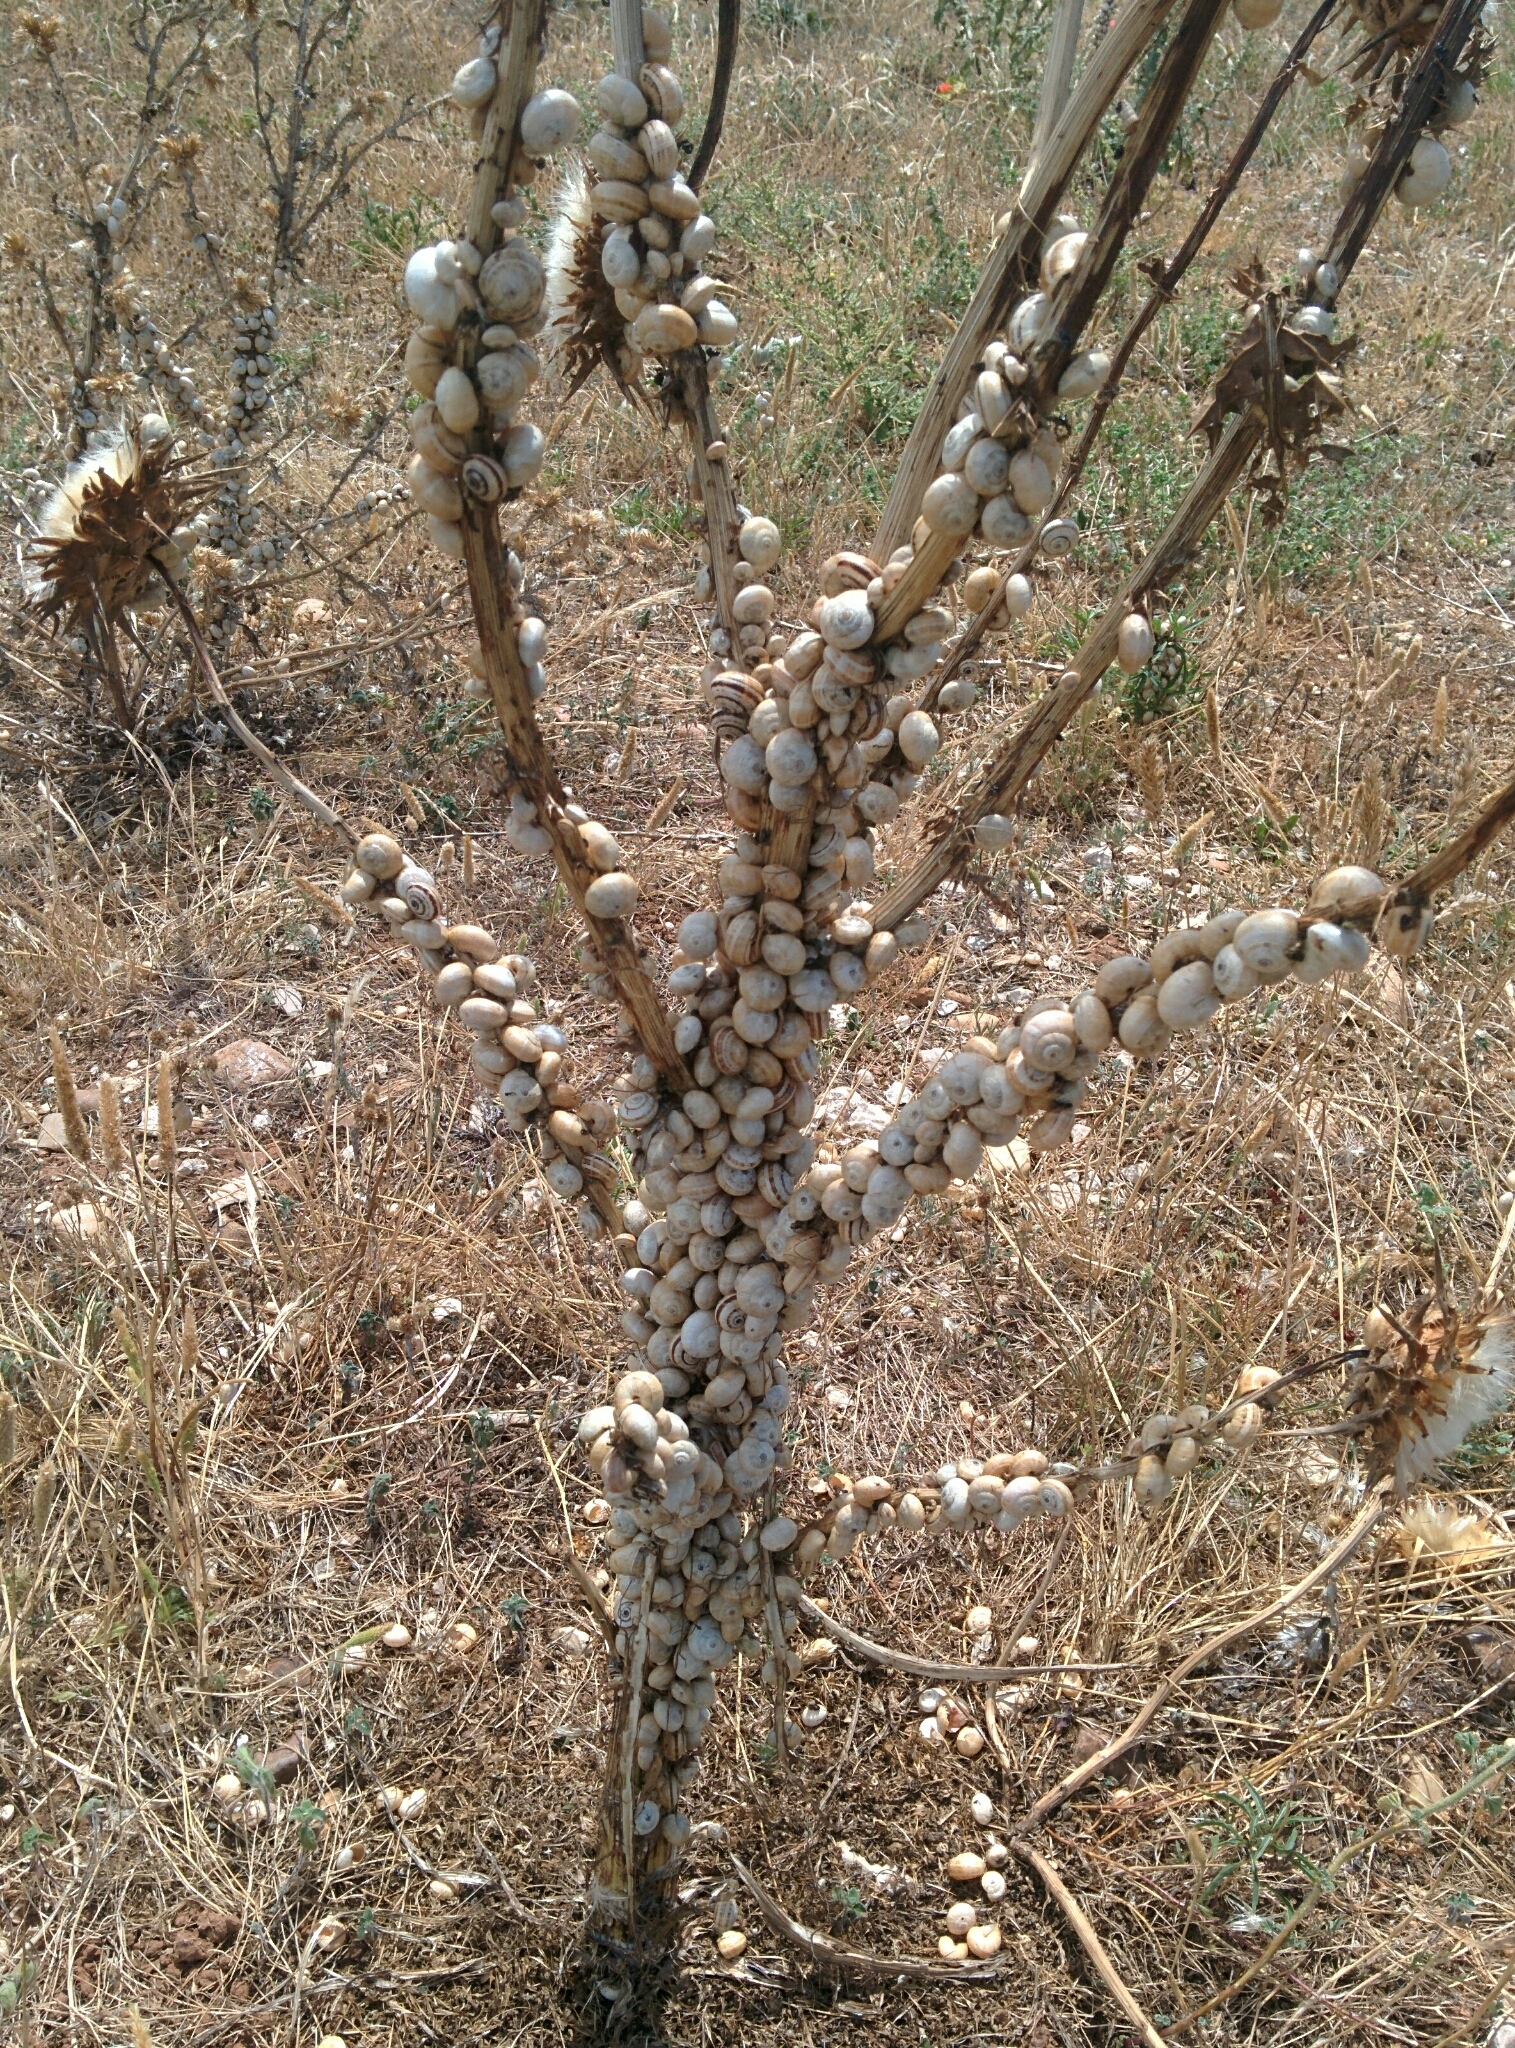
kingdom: Animalia
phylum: Mollusca
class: Gastropoda
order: Stylommatophora
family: Helicidae
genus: Theba
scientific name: Theba pisana
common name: White snail
